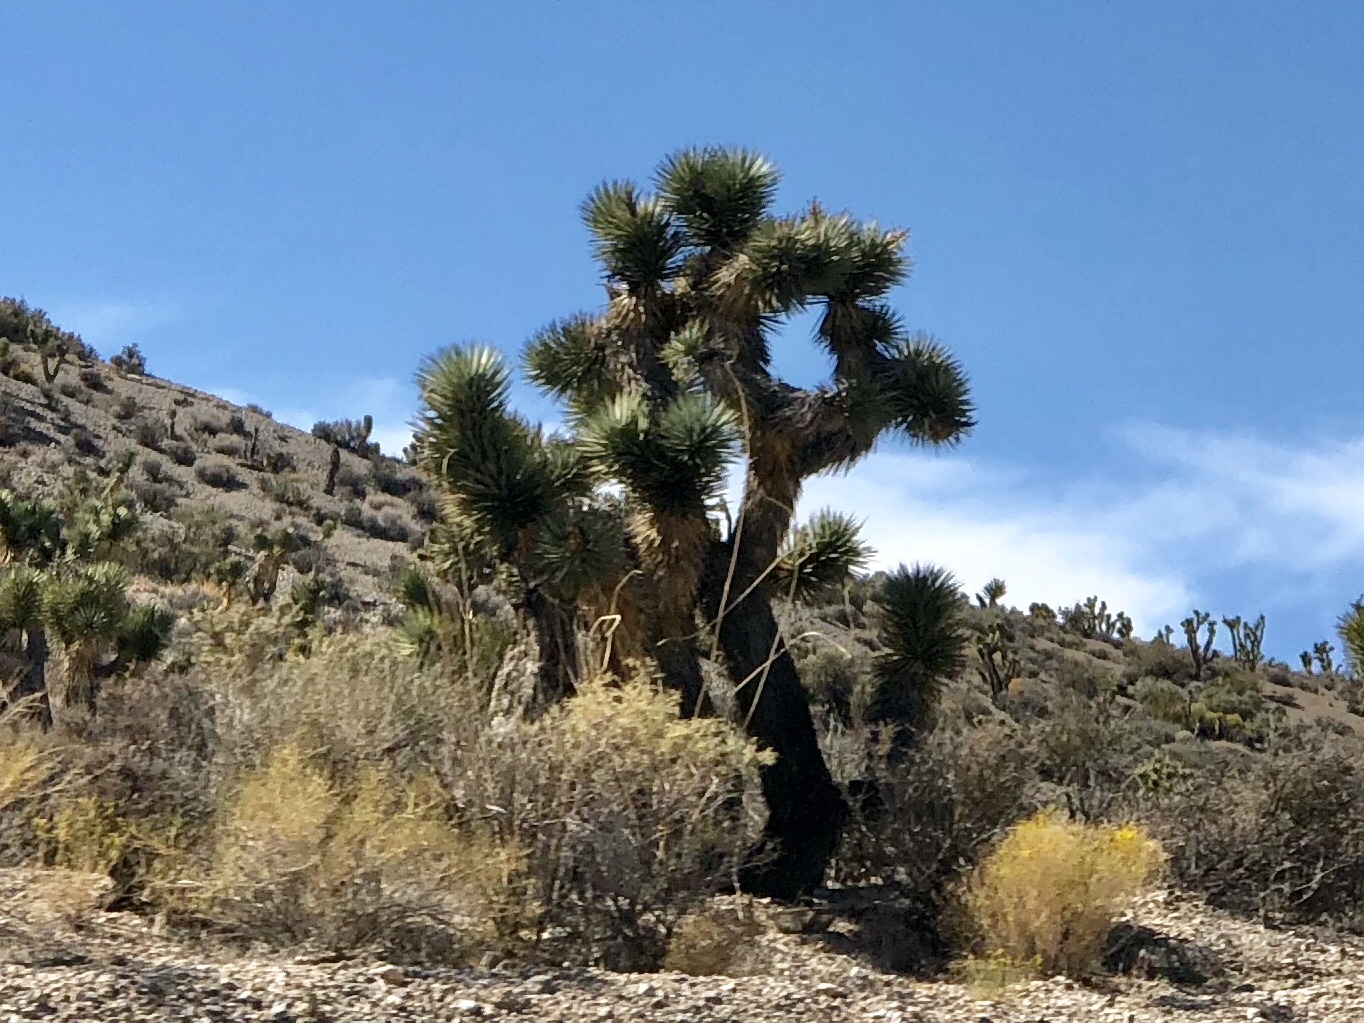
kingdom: Plantae
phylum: Tracheophyta
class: Liliopsida
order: Asparagales
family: Asparagaceae
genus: Yucca
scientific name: Yucca brevifolia
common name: Joshua tree
